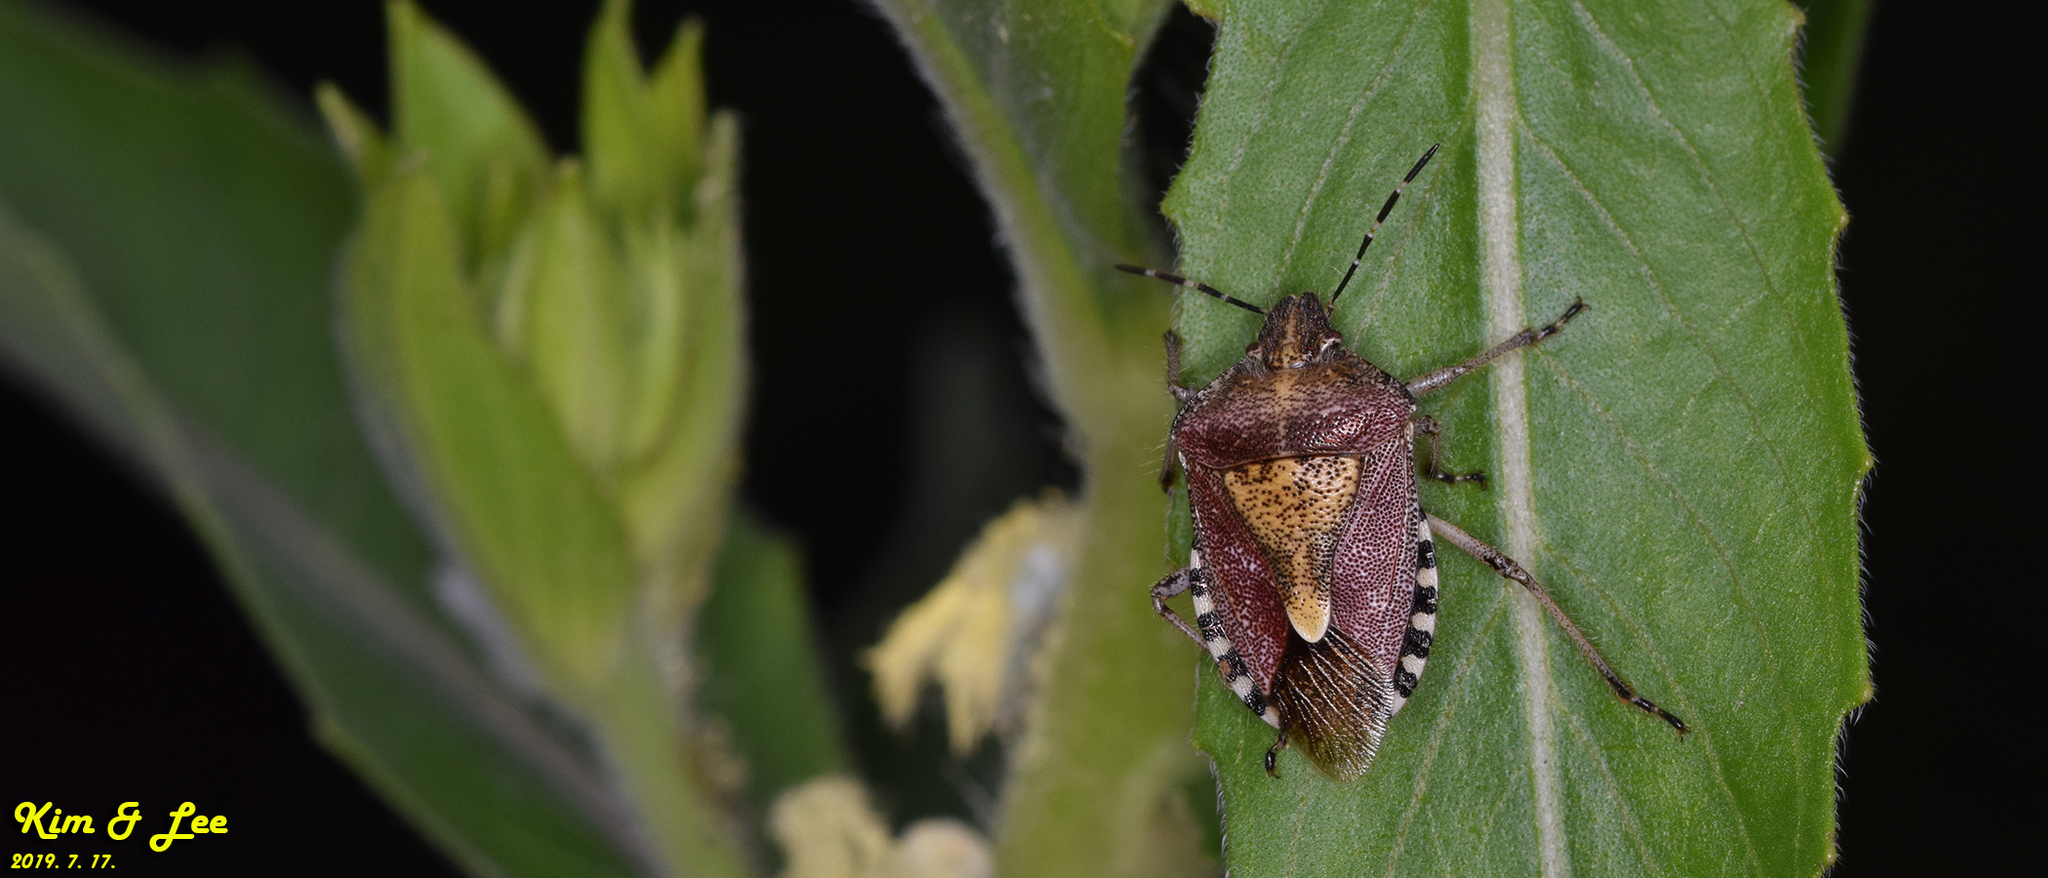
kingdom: Animalia
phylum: Arthropoda
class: Insecta
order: Hemiptera
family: Pentatomidae
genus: Dolycoris
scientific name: Dolycoris baccarum
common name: Sloe bug
